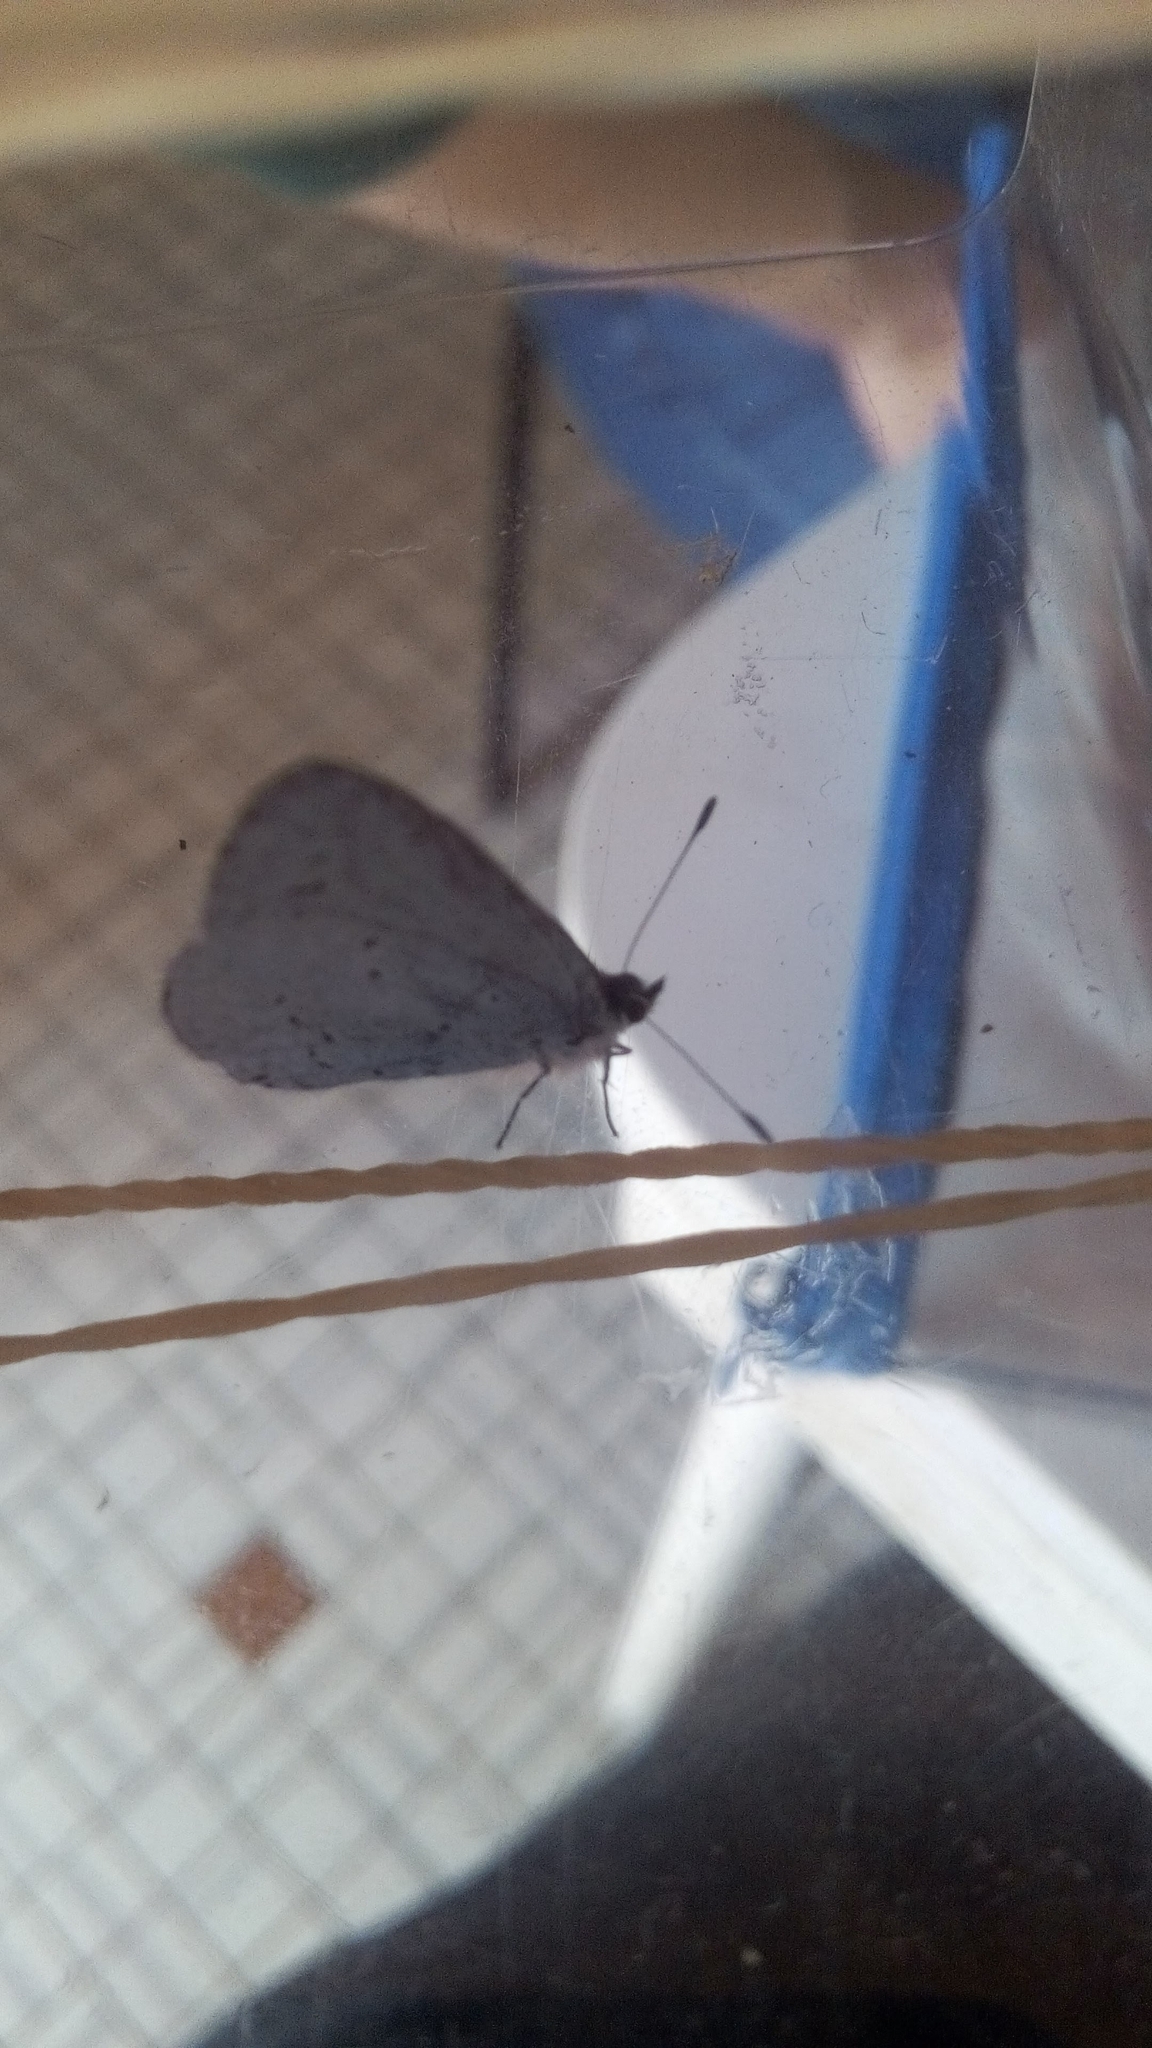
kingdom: Animalia
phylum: Arthropoda
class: Insecta
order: Lepidoptera
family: Lycaenidae
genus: Celastrina
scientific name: Celastrina argiolus
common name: Holly blue
